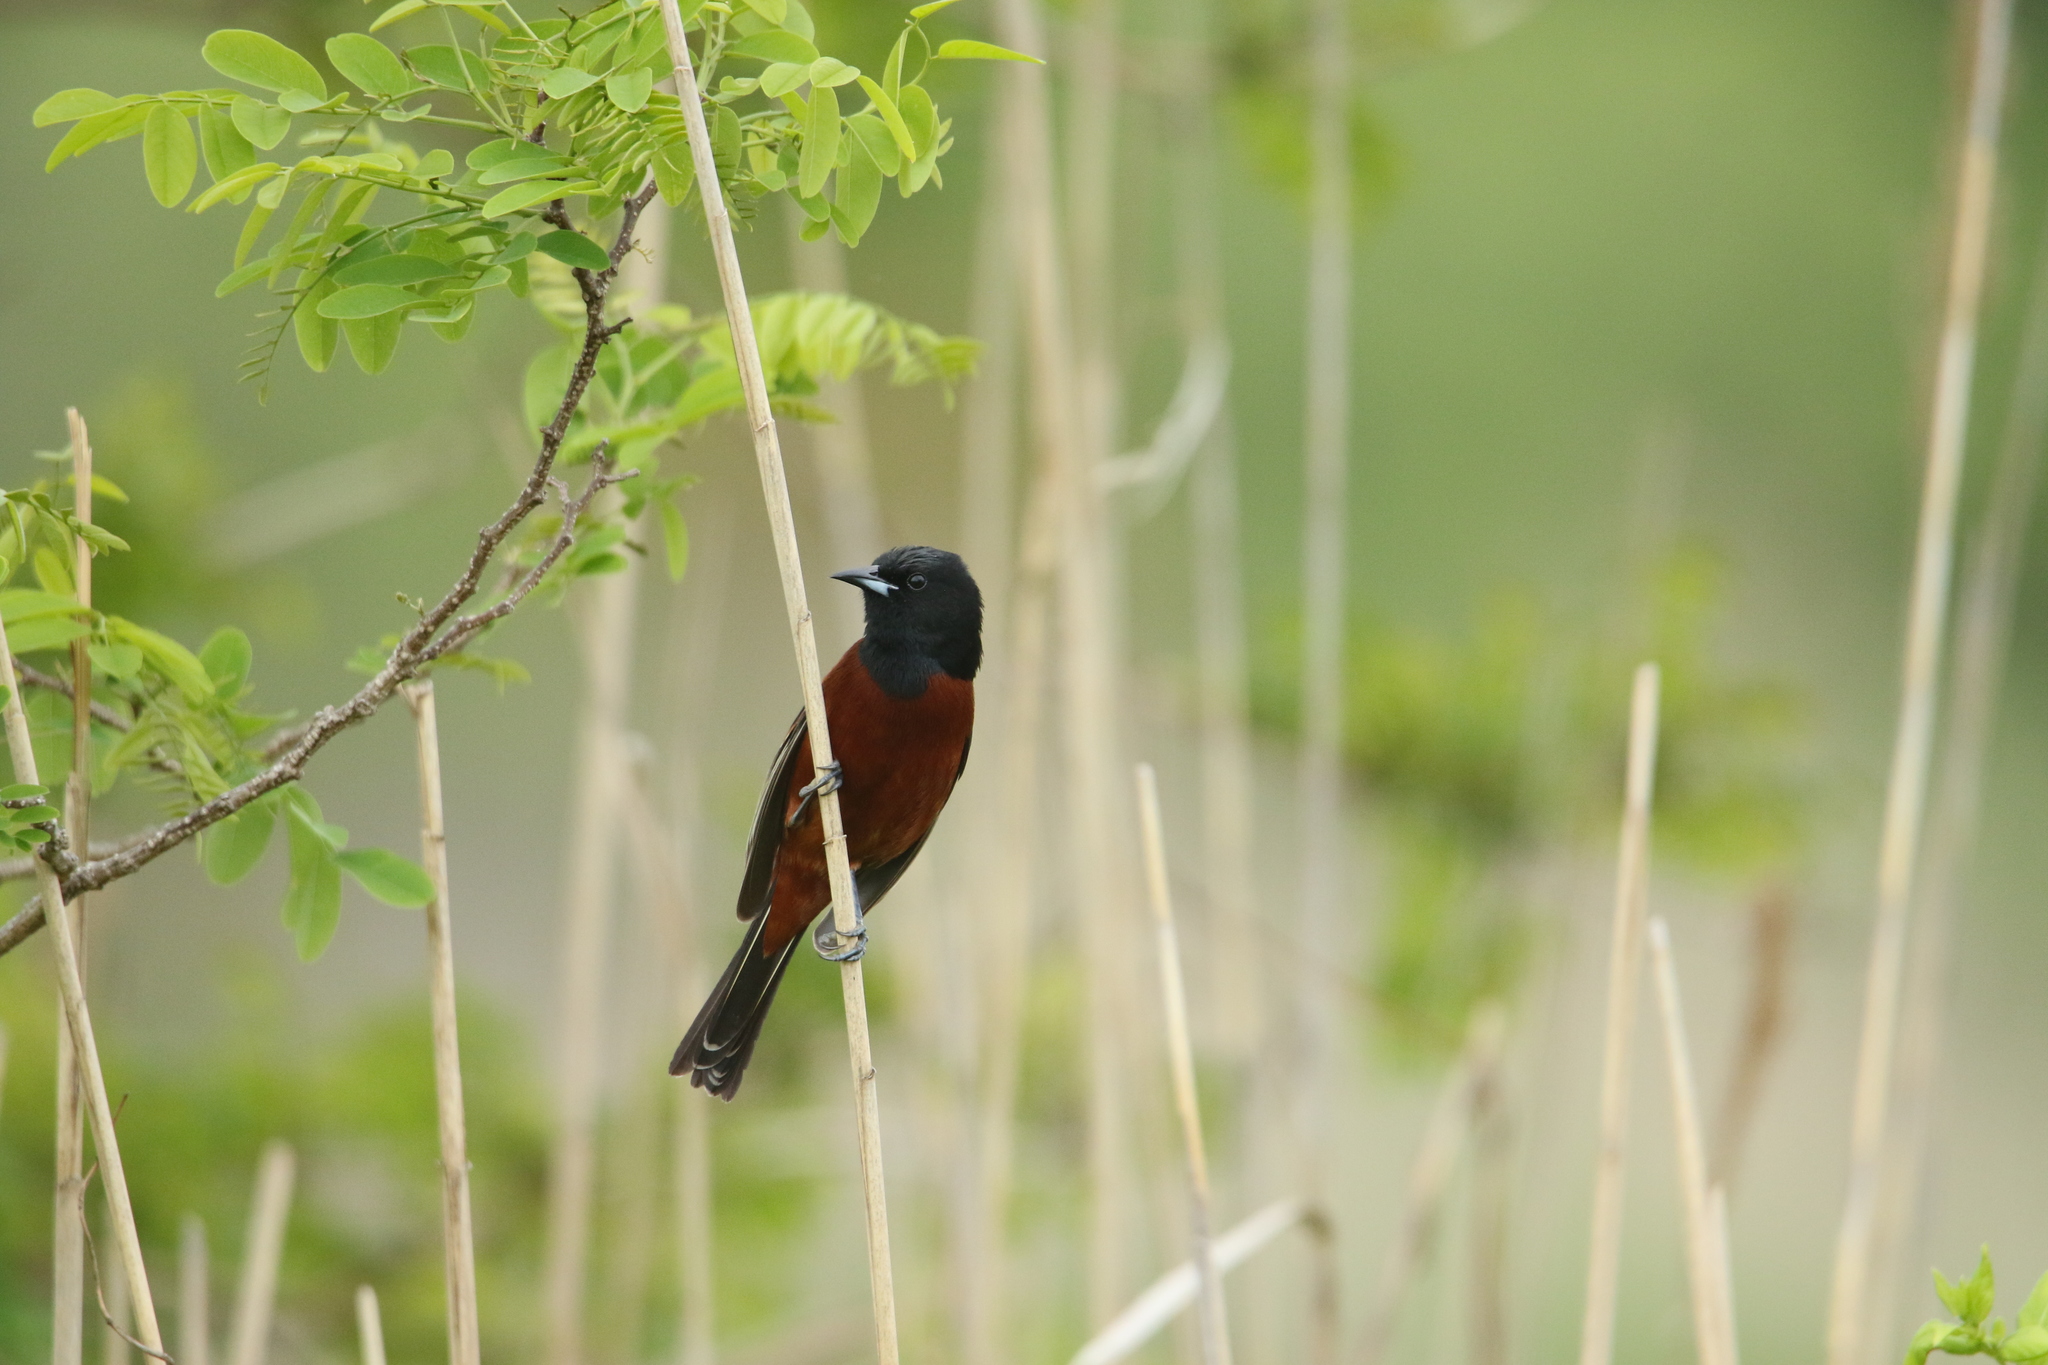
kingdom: Animalia
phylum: Chordata
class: Aves
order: Passeriformes
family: Icteridae
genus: Icterus
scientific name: Icterus spurius
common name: Orchard oriole
